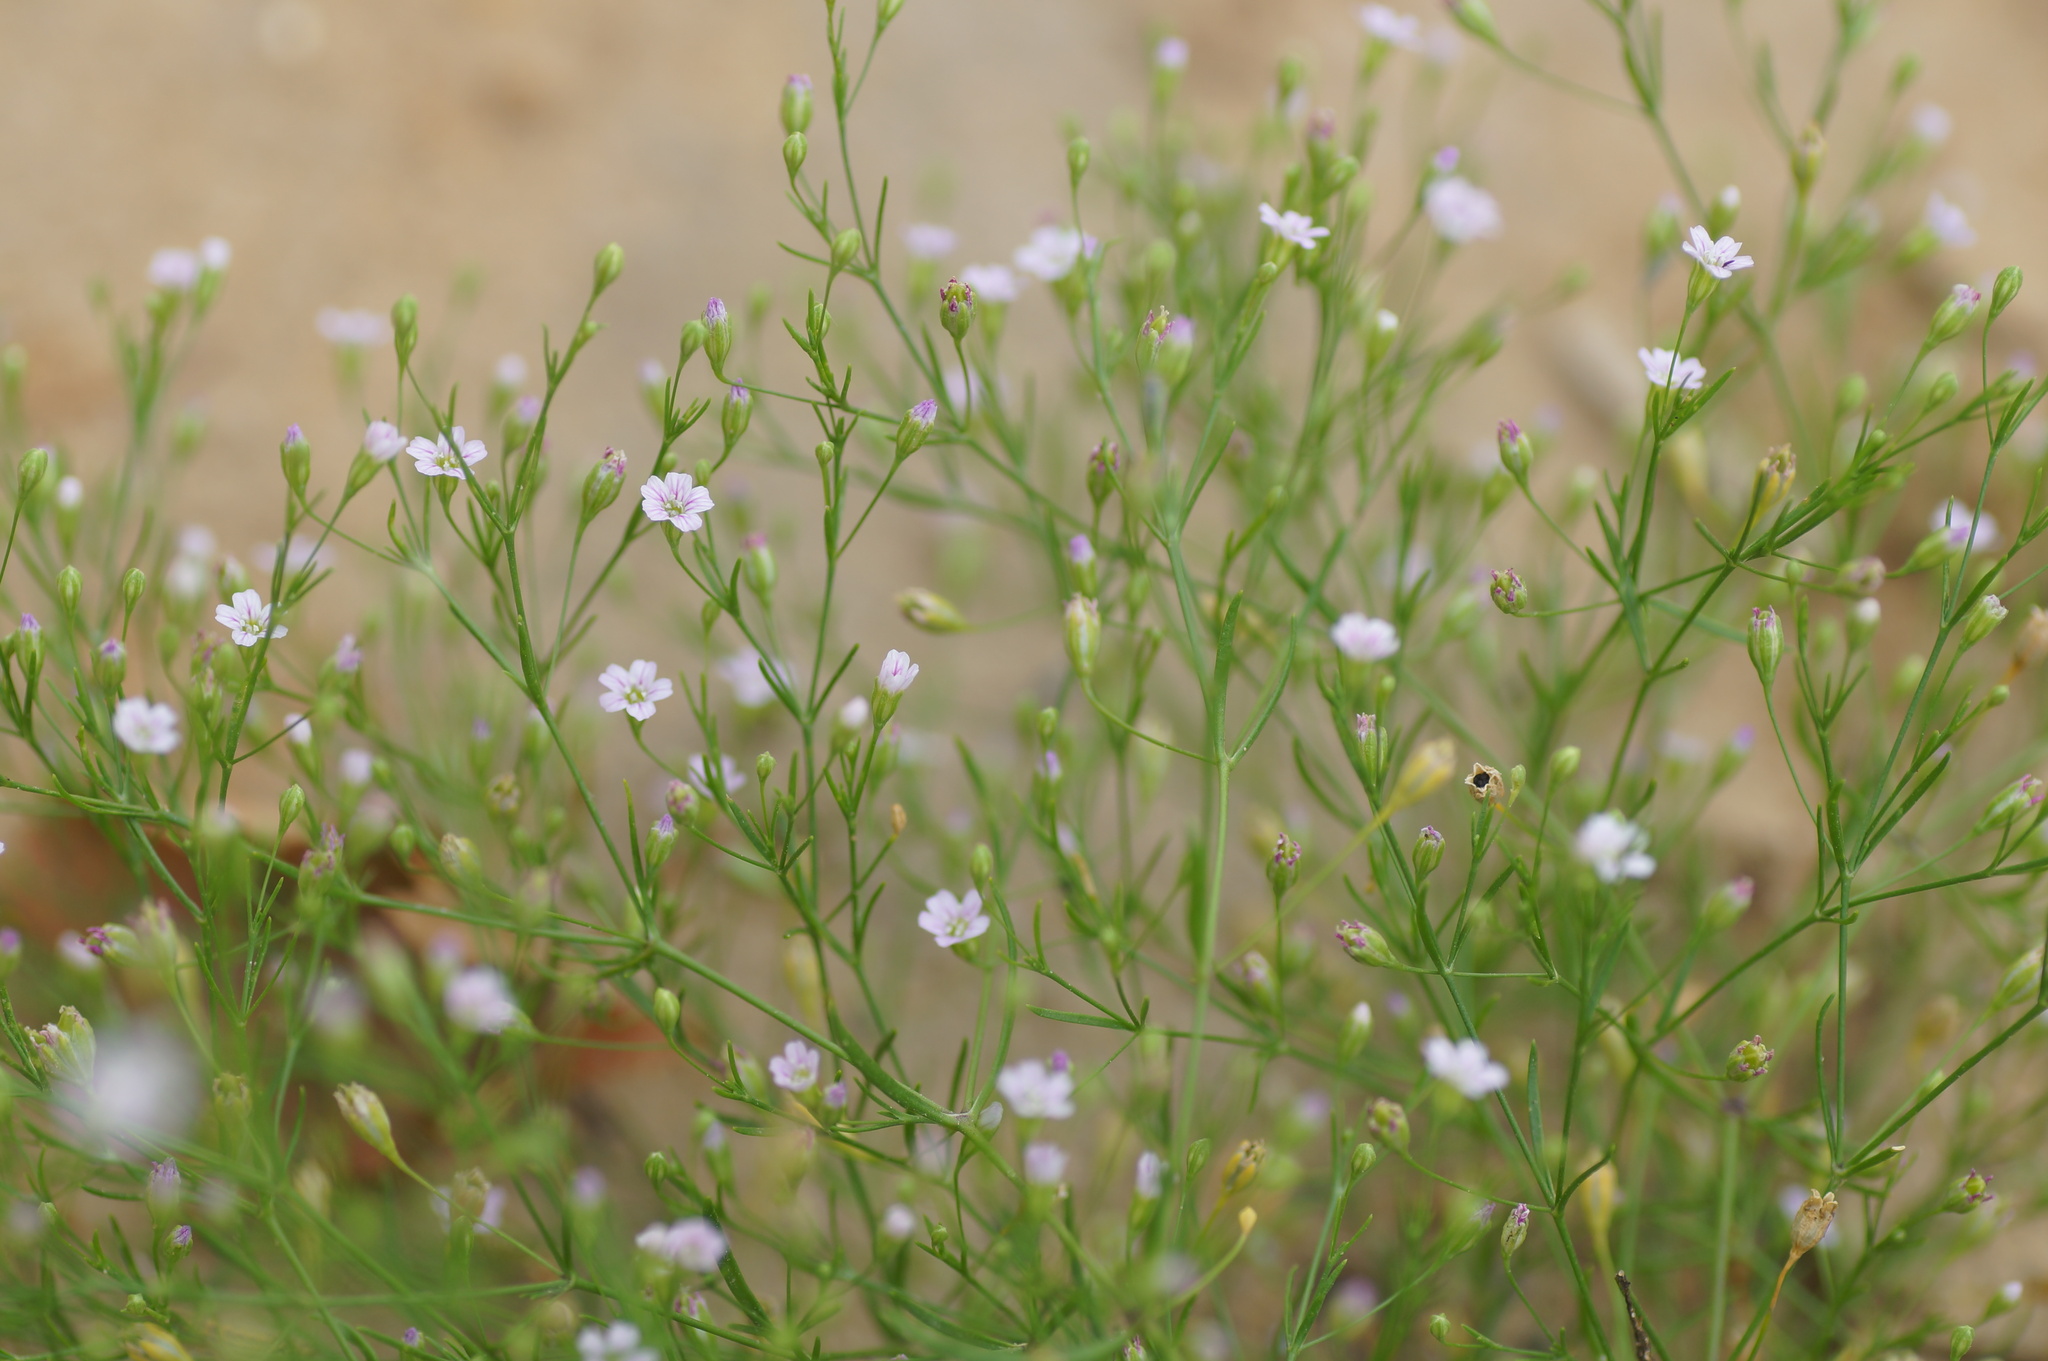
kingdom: Plantae
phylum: Tracheophyta
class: Magnoliopsida
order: Caryophyllales
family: Caryophyllaceae
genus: Psammophiliella
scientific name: Psammophiliella muralis
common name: Cushion baby's-breath
